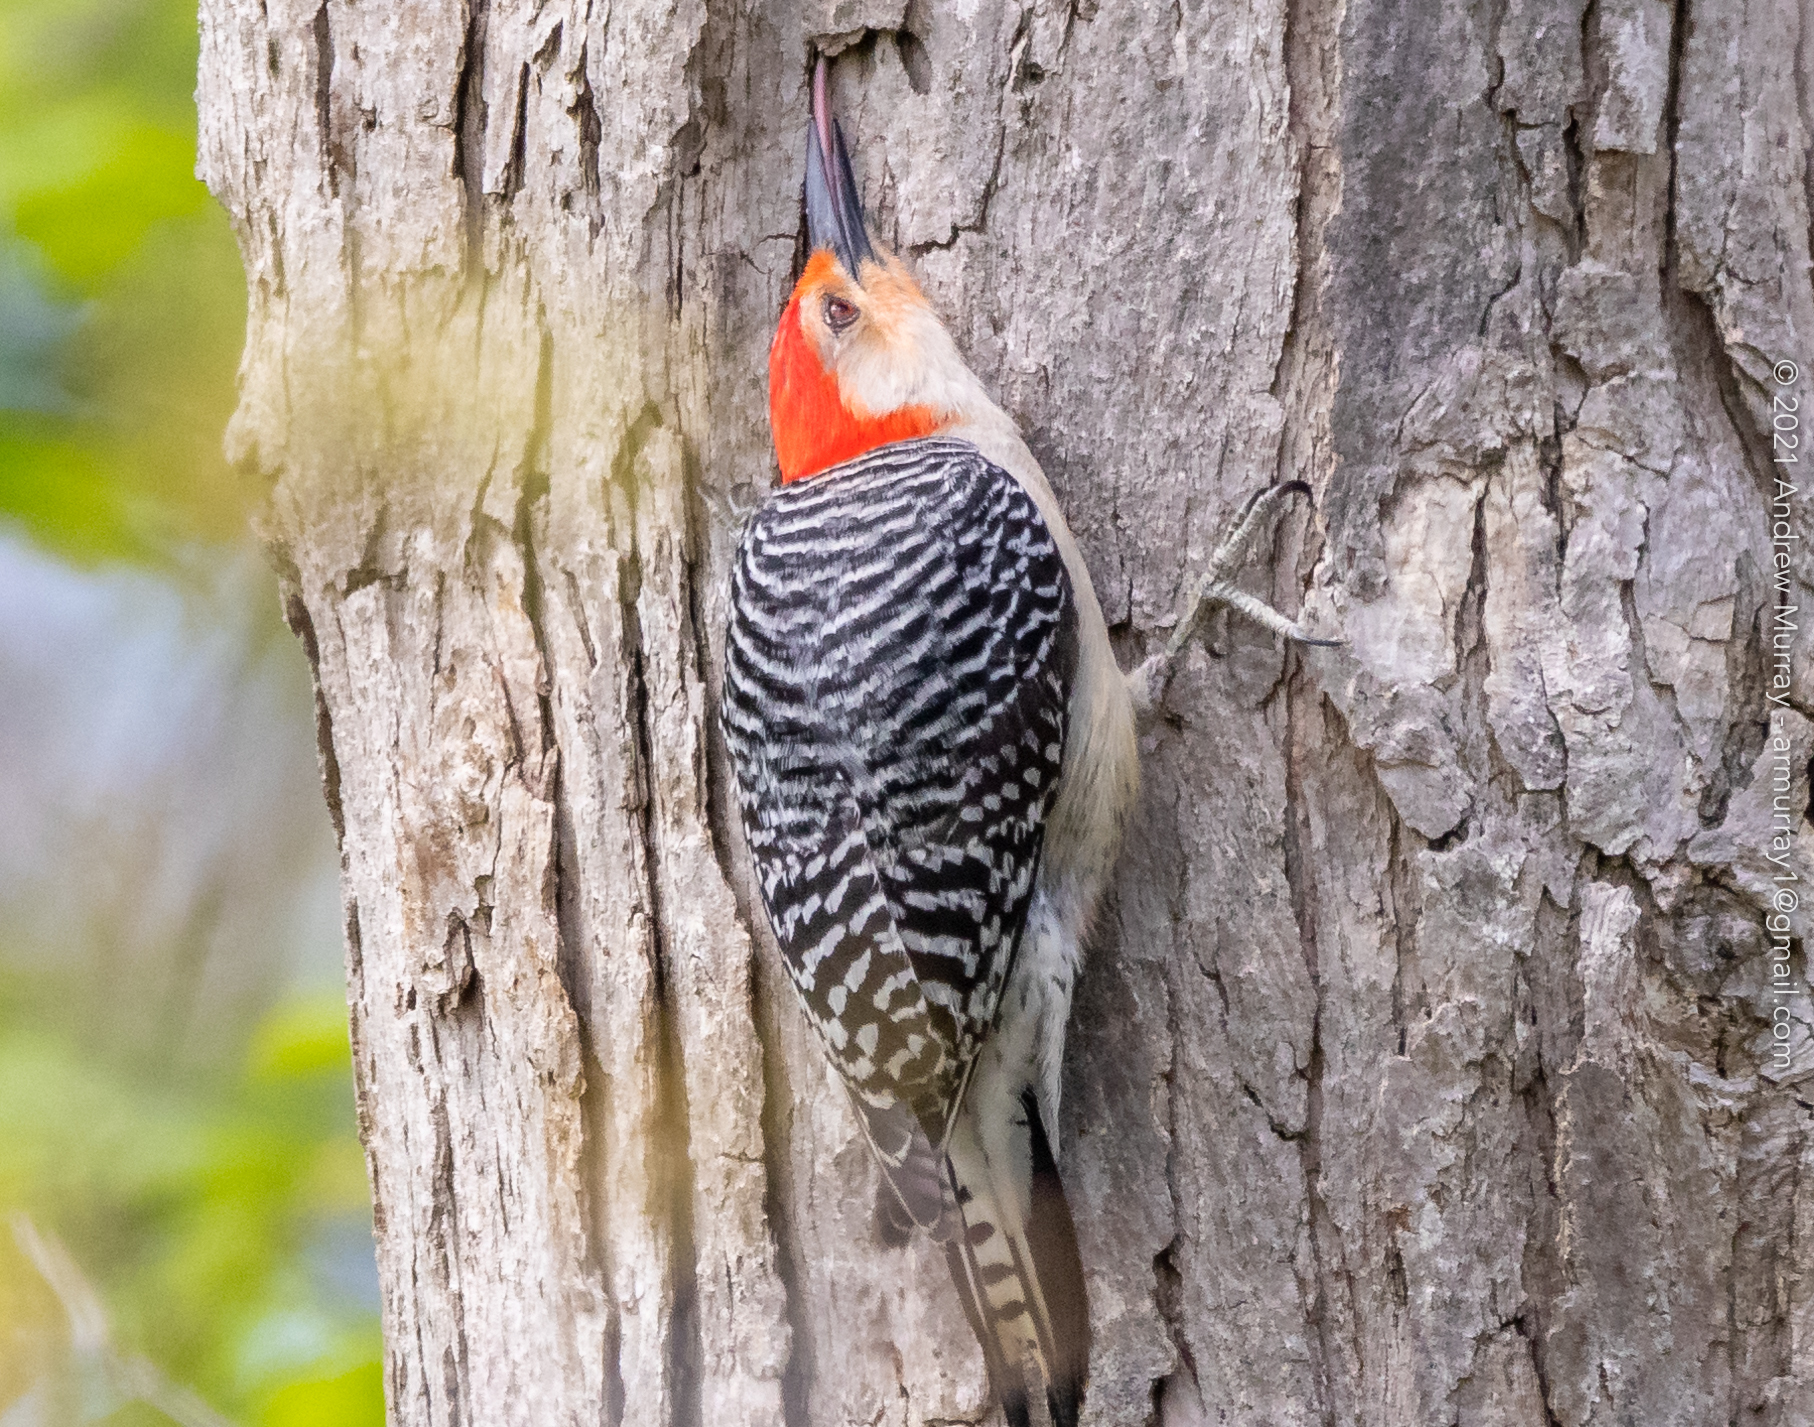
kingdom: Animalia
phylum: Chordata
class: Aves
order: Piciformes
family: Picidae
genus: Melanerpes
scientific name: Melanerpes carolinus
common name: Red-bellied woodpecker
